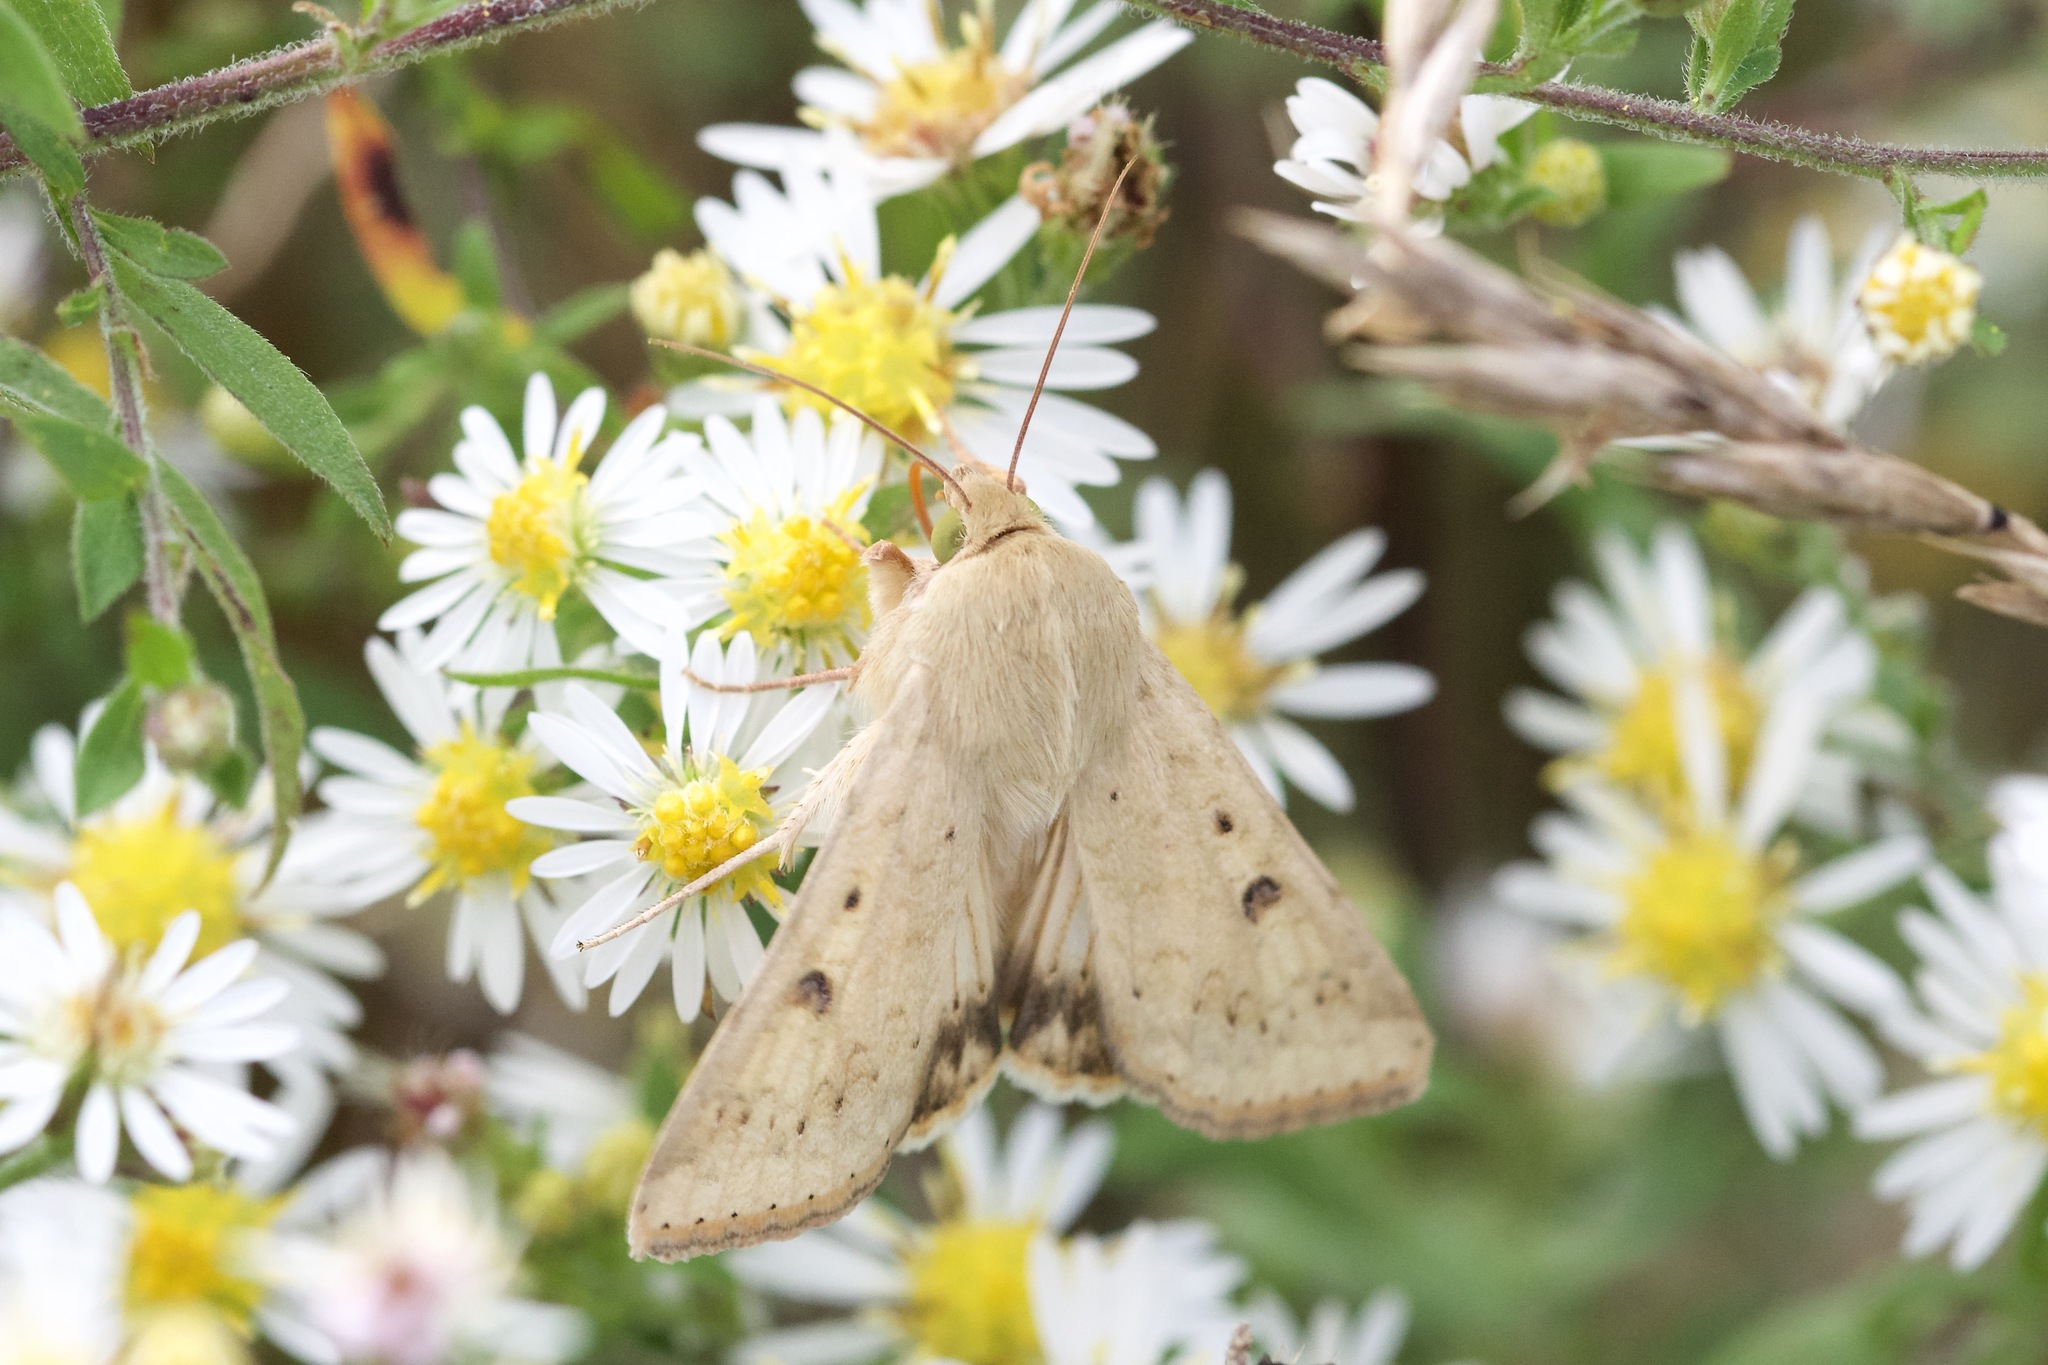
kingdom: Animalia
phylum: Arthropoda
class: Insecta
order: Lepidoptera
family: Noctuidae
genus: Helicoverpa
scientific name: Helicoverpa zea
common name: Bollworm
